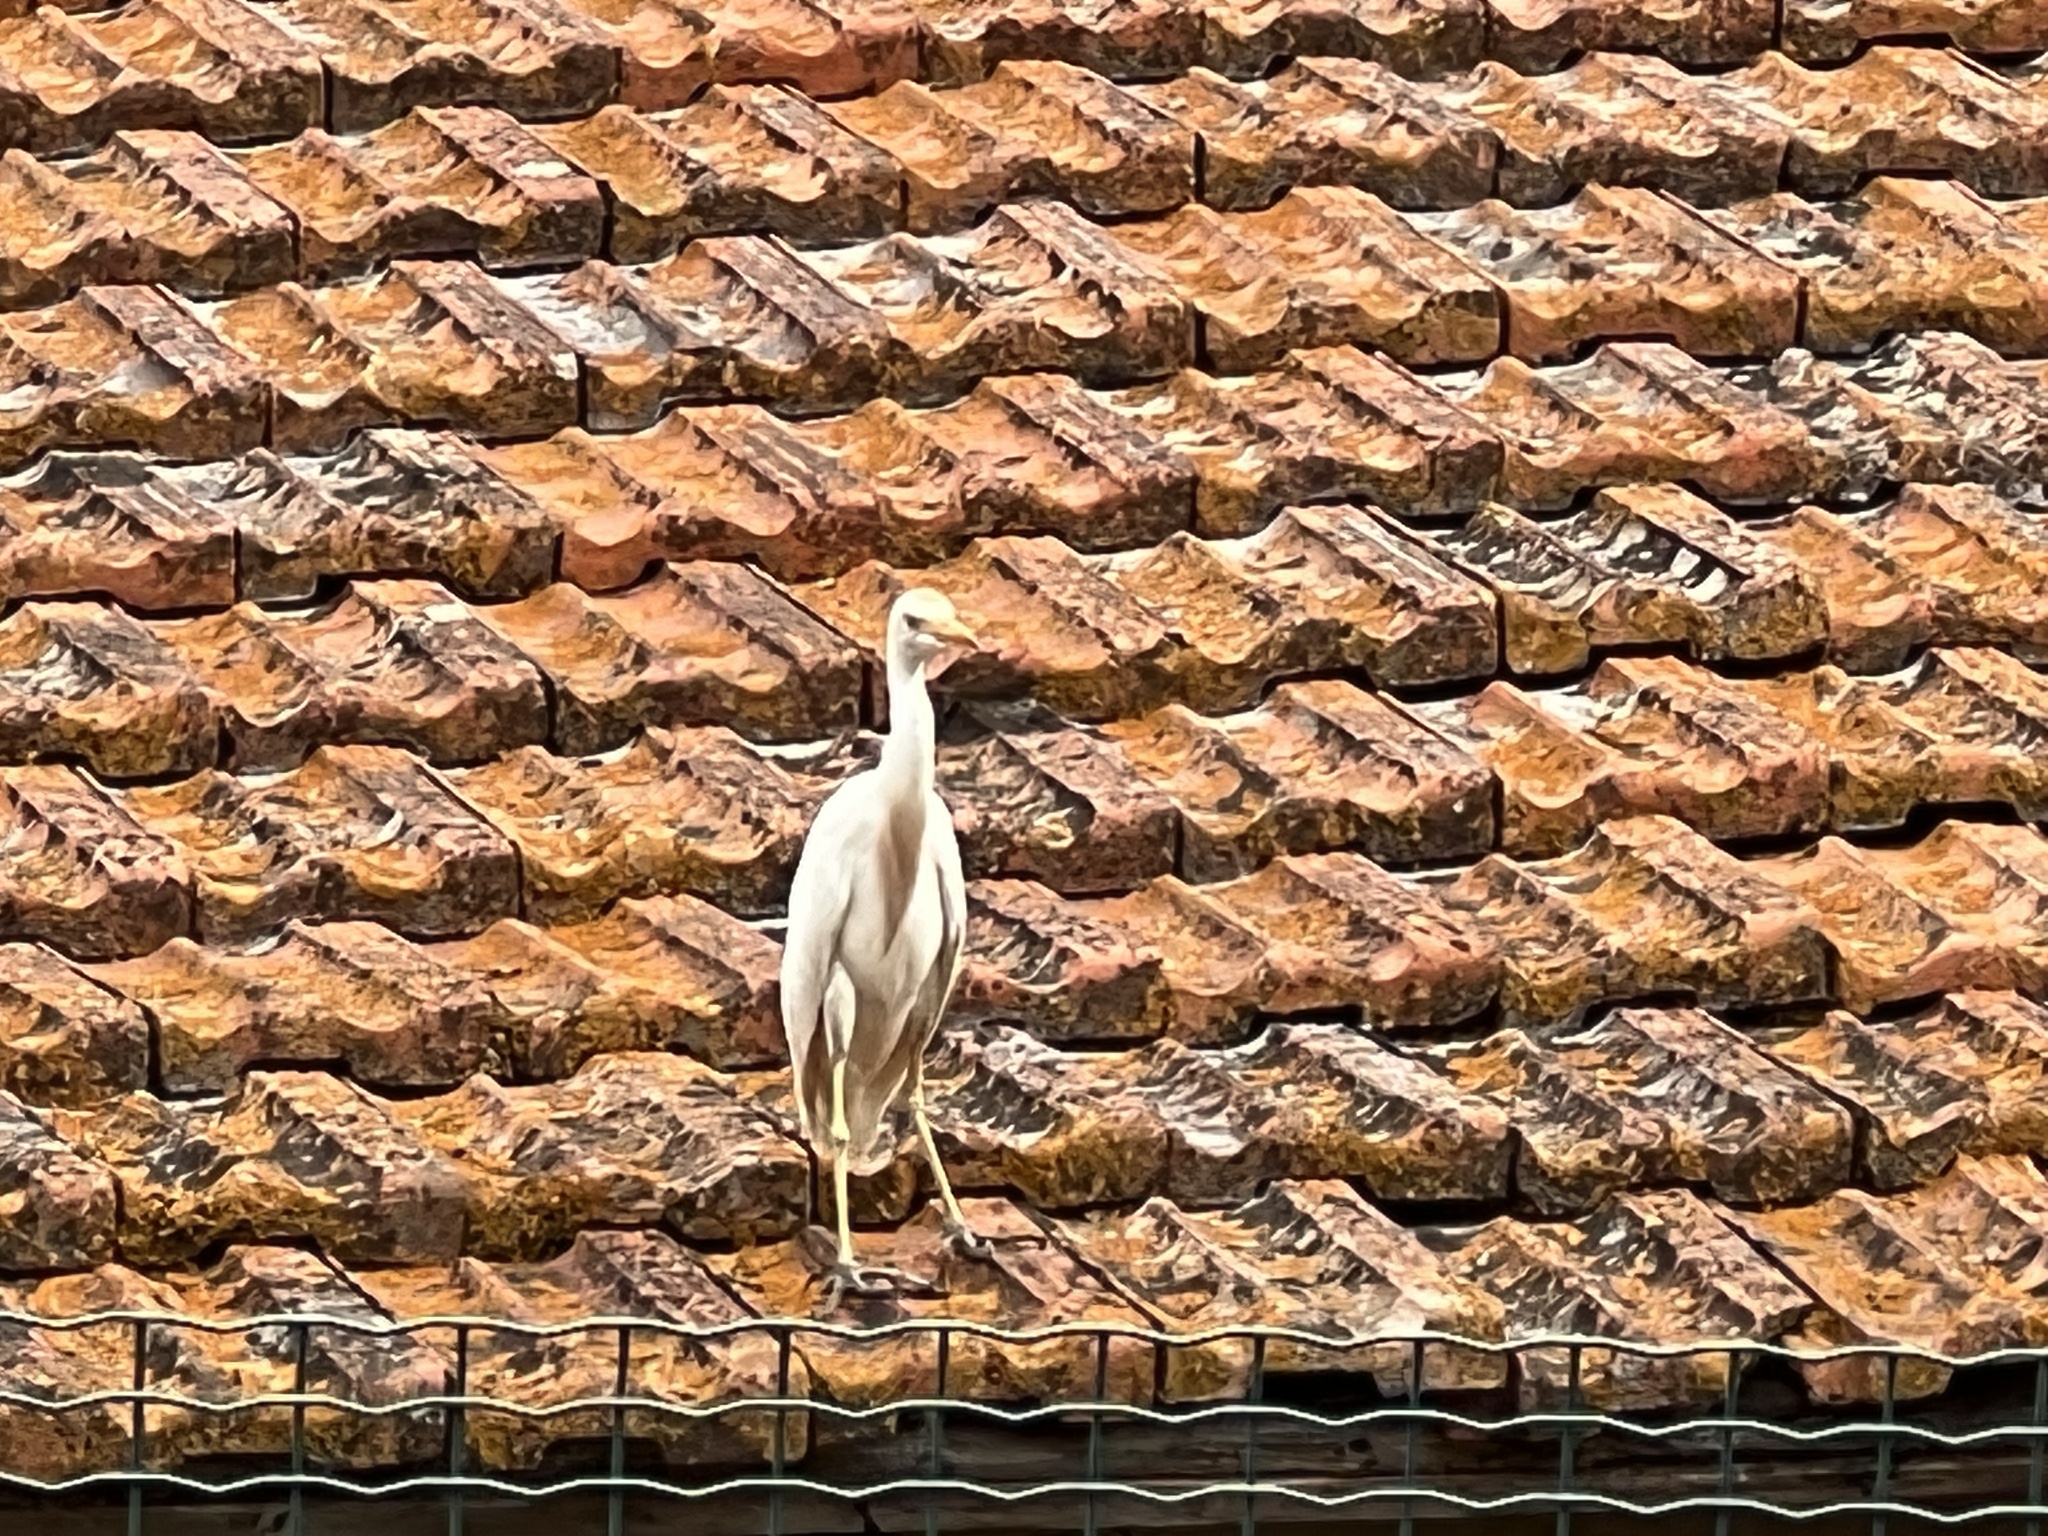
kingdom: Animalia
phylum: Chordata
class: Aves
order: Pelecaniformes
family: Ardeidae
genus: Bubulcus
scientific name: Bubulcus ibis
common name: Cattle egret
